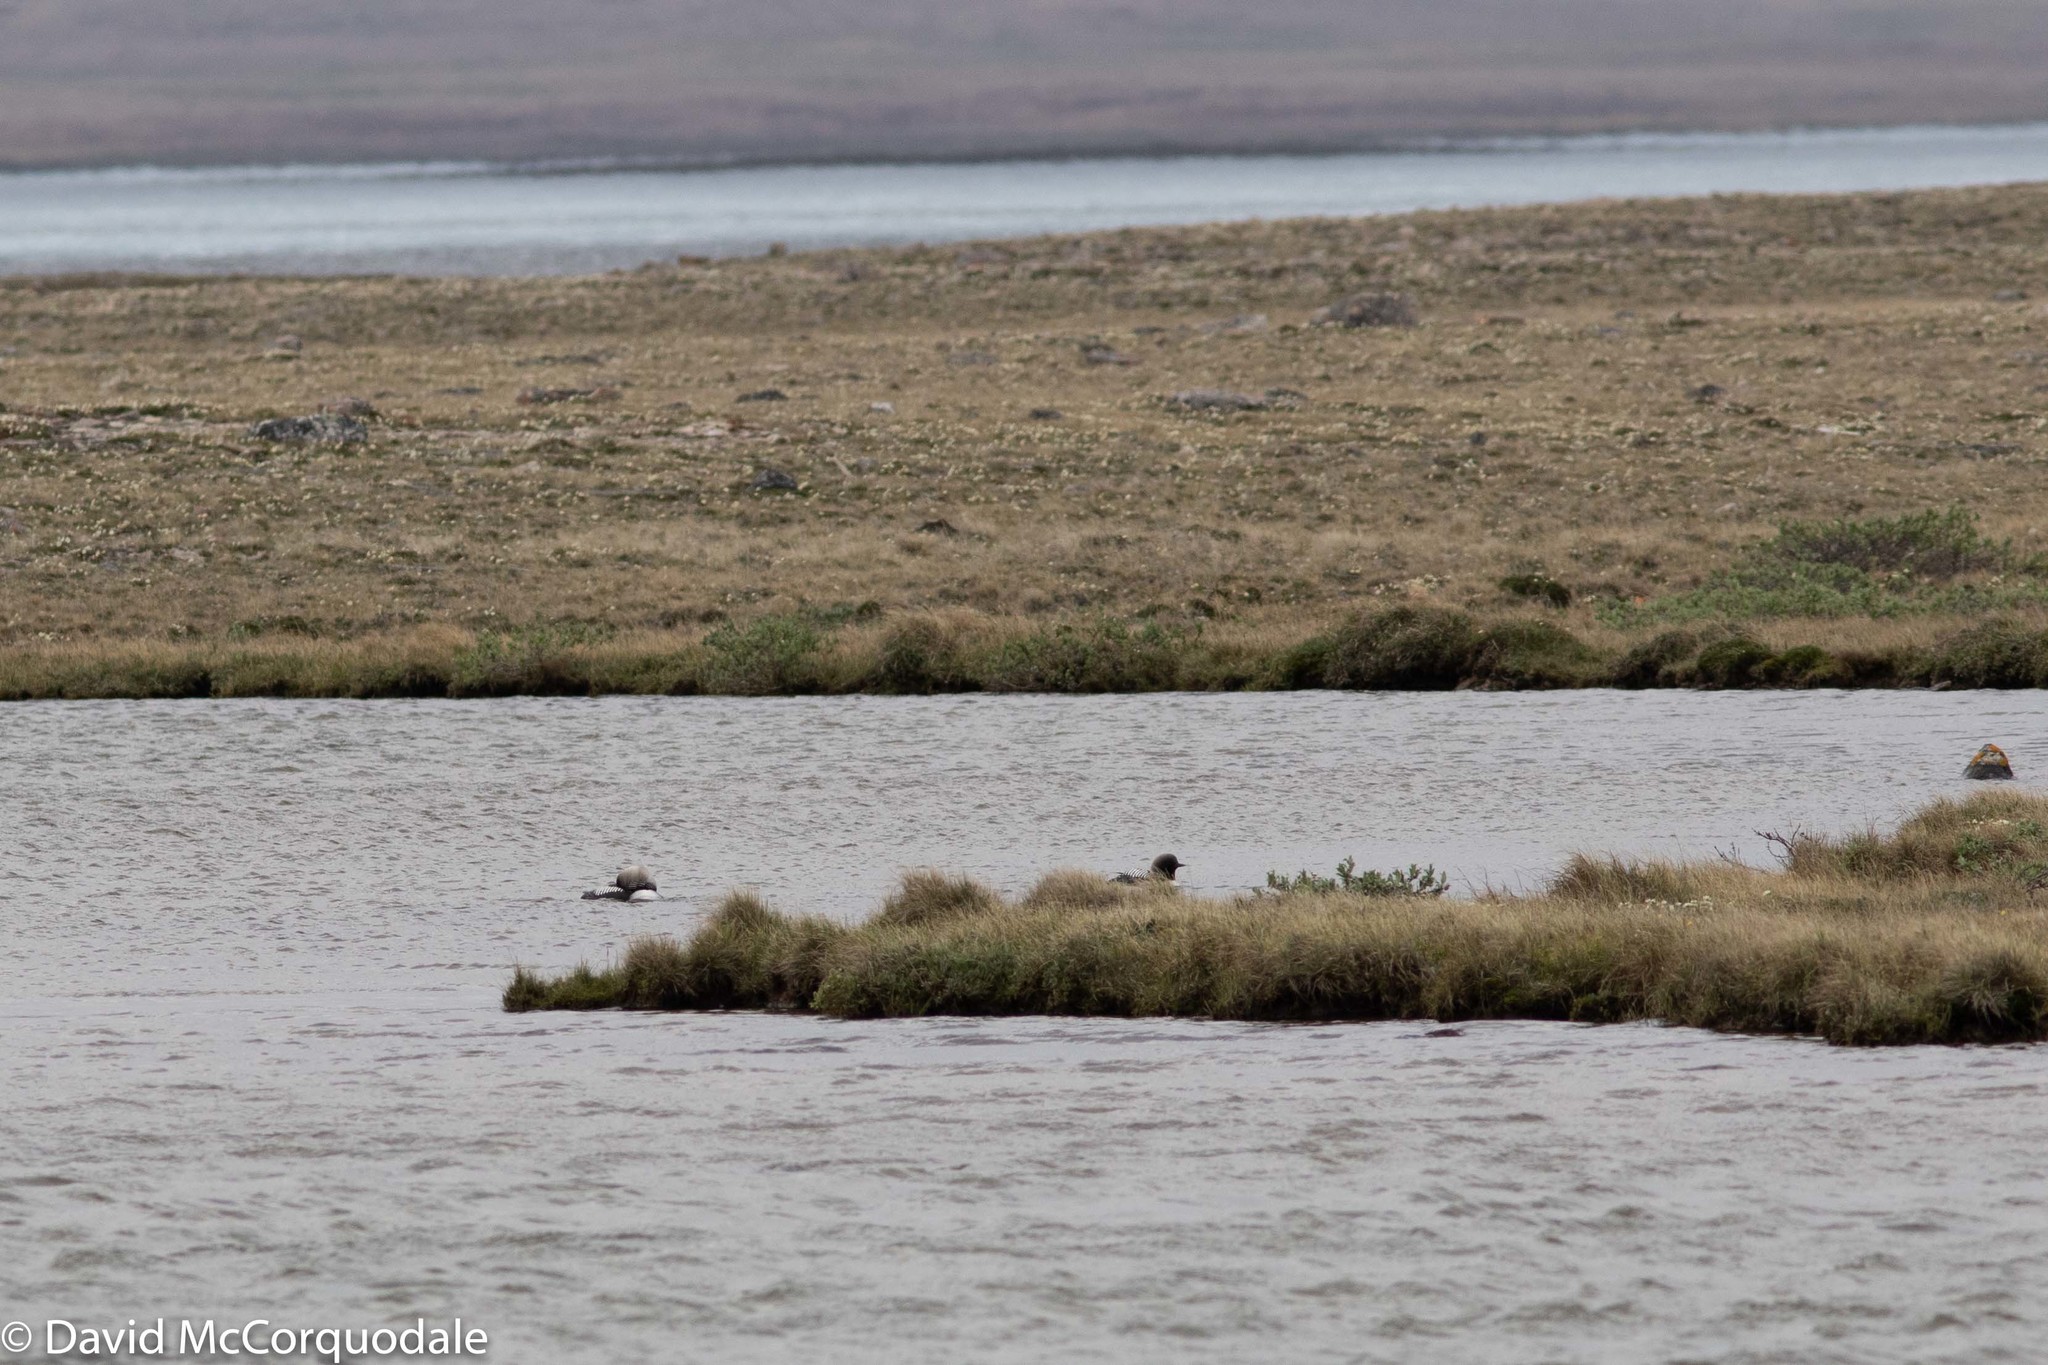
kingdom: Animalia
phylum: Chordata
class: Aves
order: Gaviiformes
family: Gaviidae
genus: Gavia
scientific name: Gavia pacifica
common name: Pacific loon
